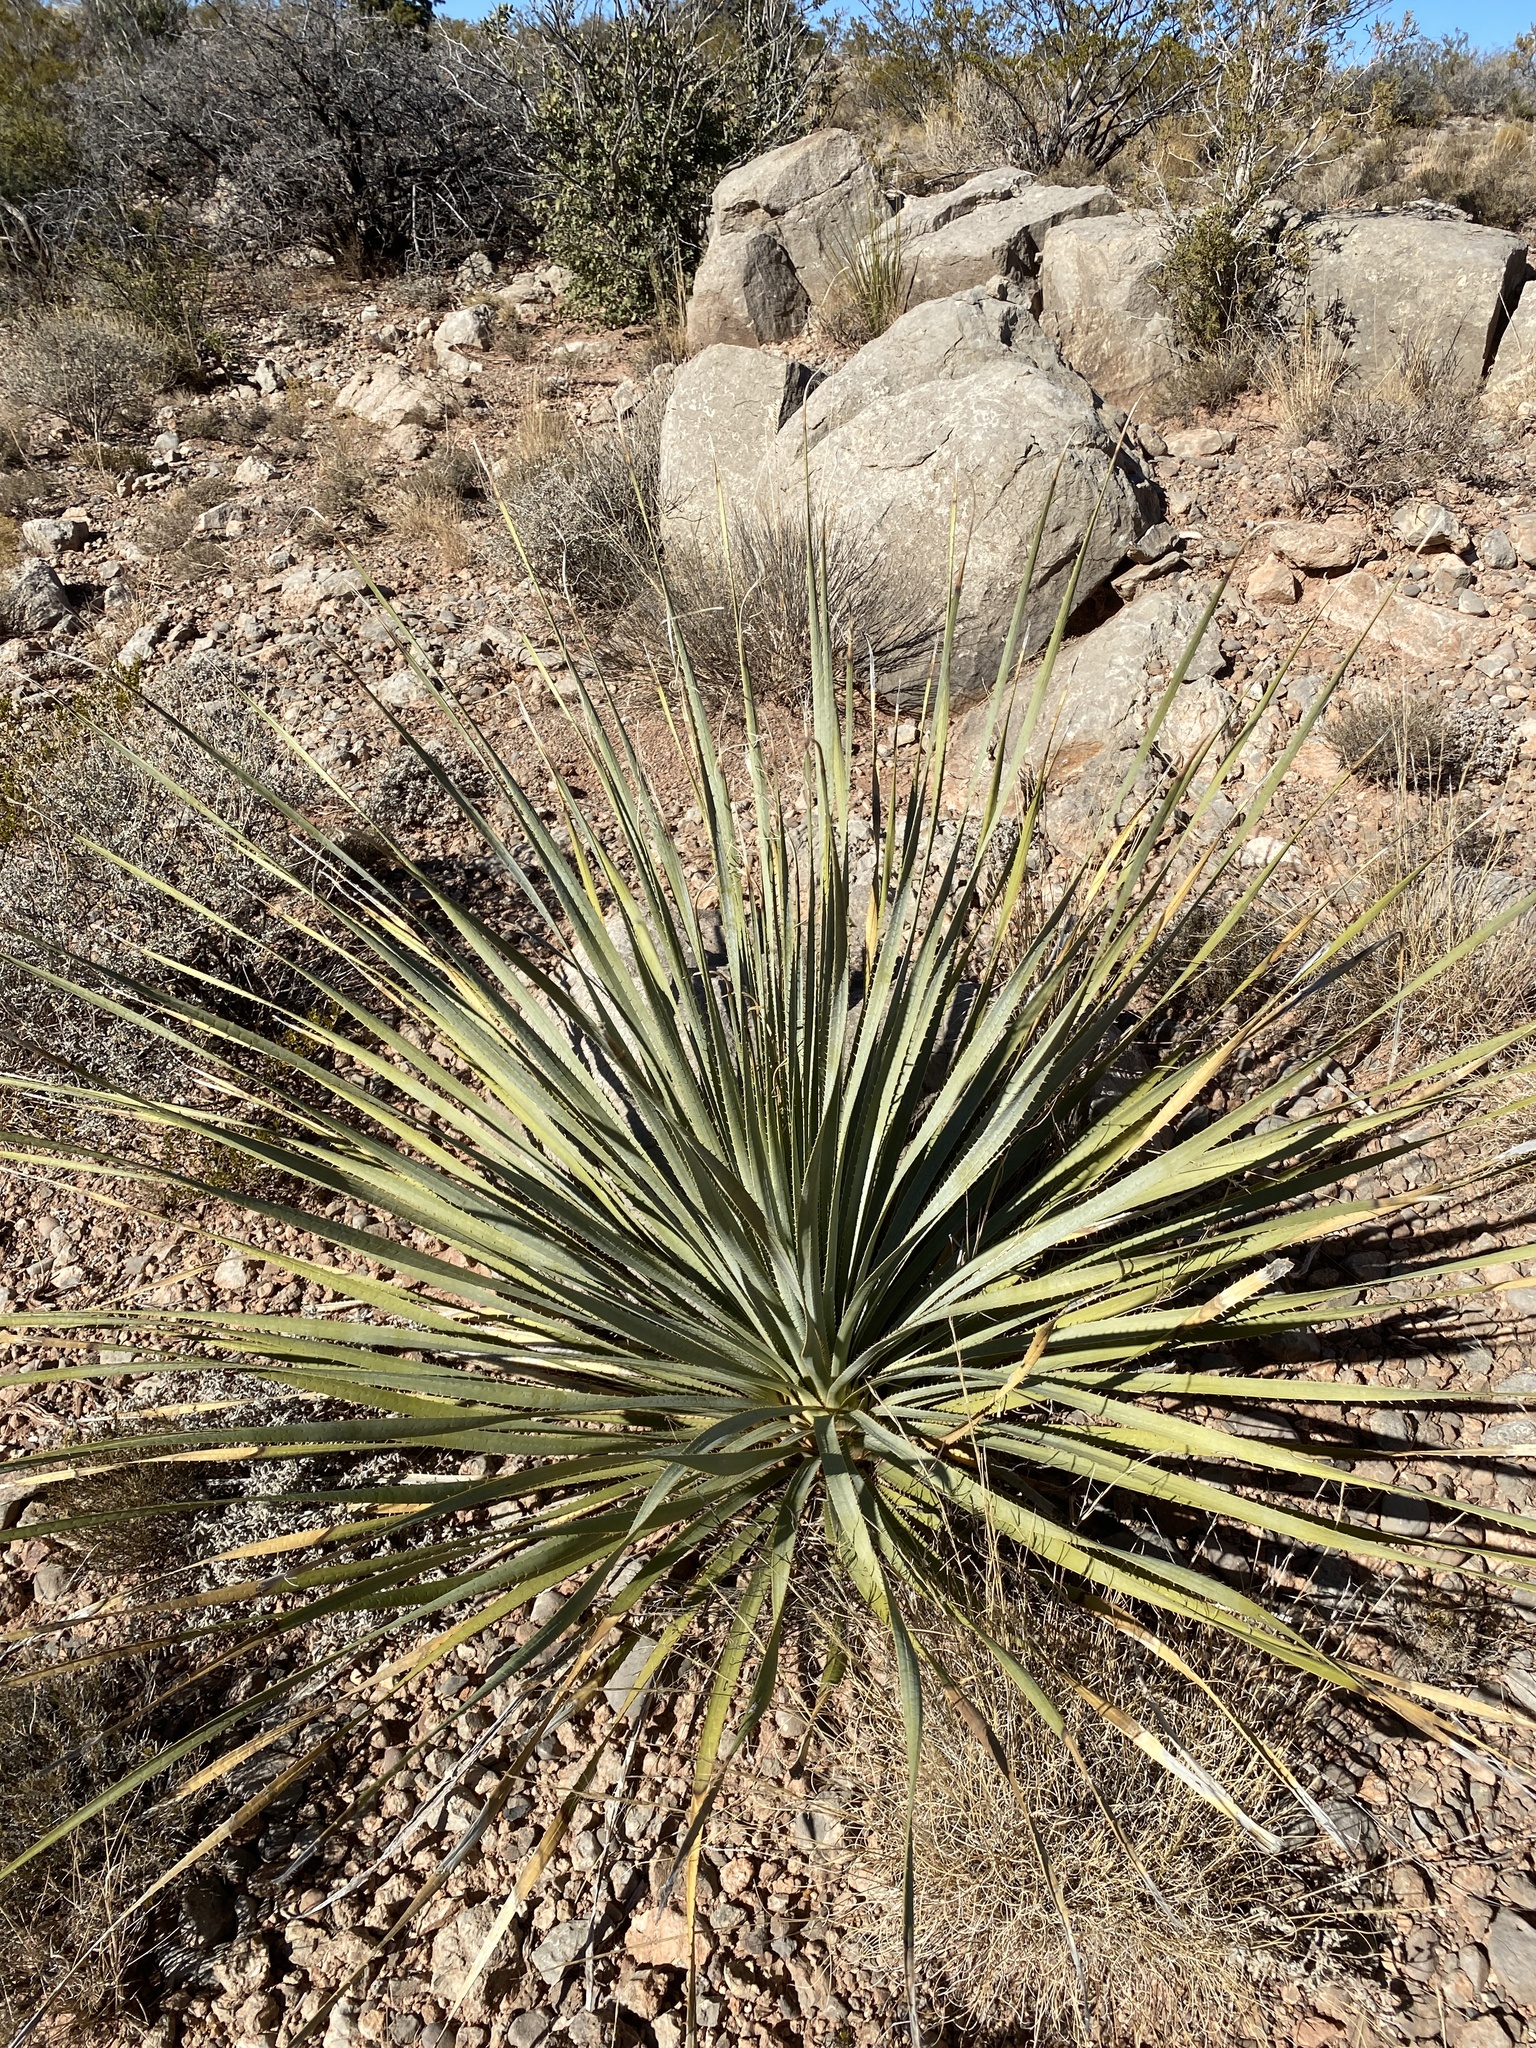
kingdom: Plantae
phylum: Tracheophyta
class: Liliopsida
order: Asparagales
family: Asparagaceae
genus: Dasylirion
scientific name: Dasylirion wheeleri
